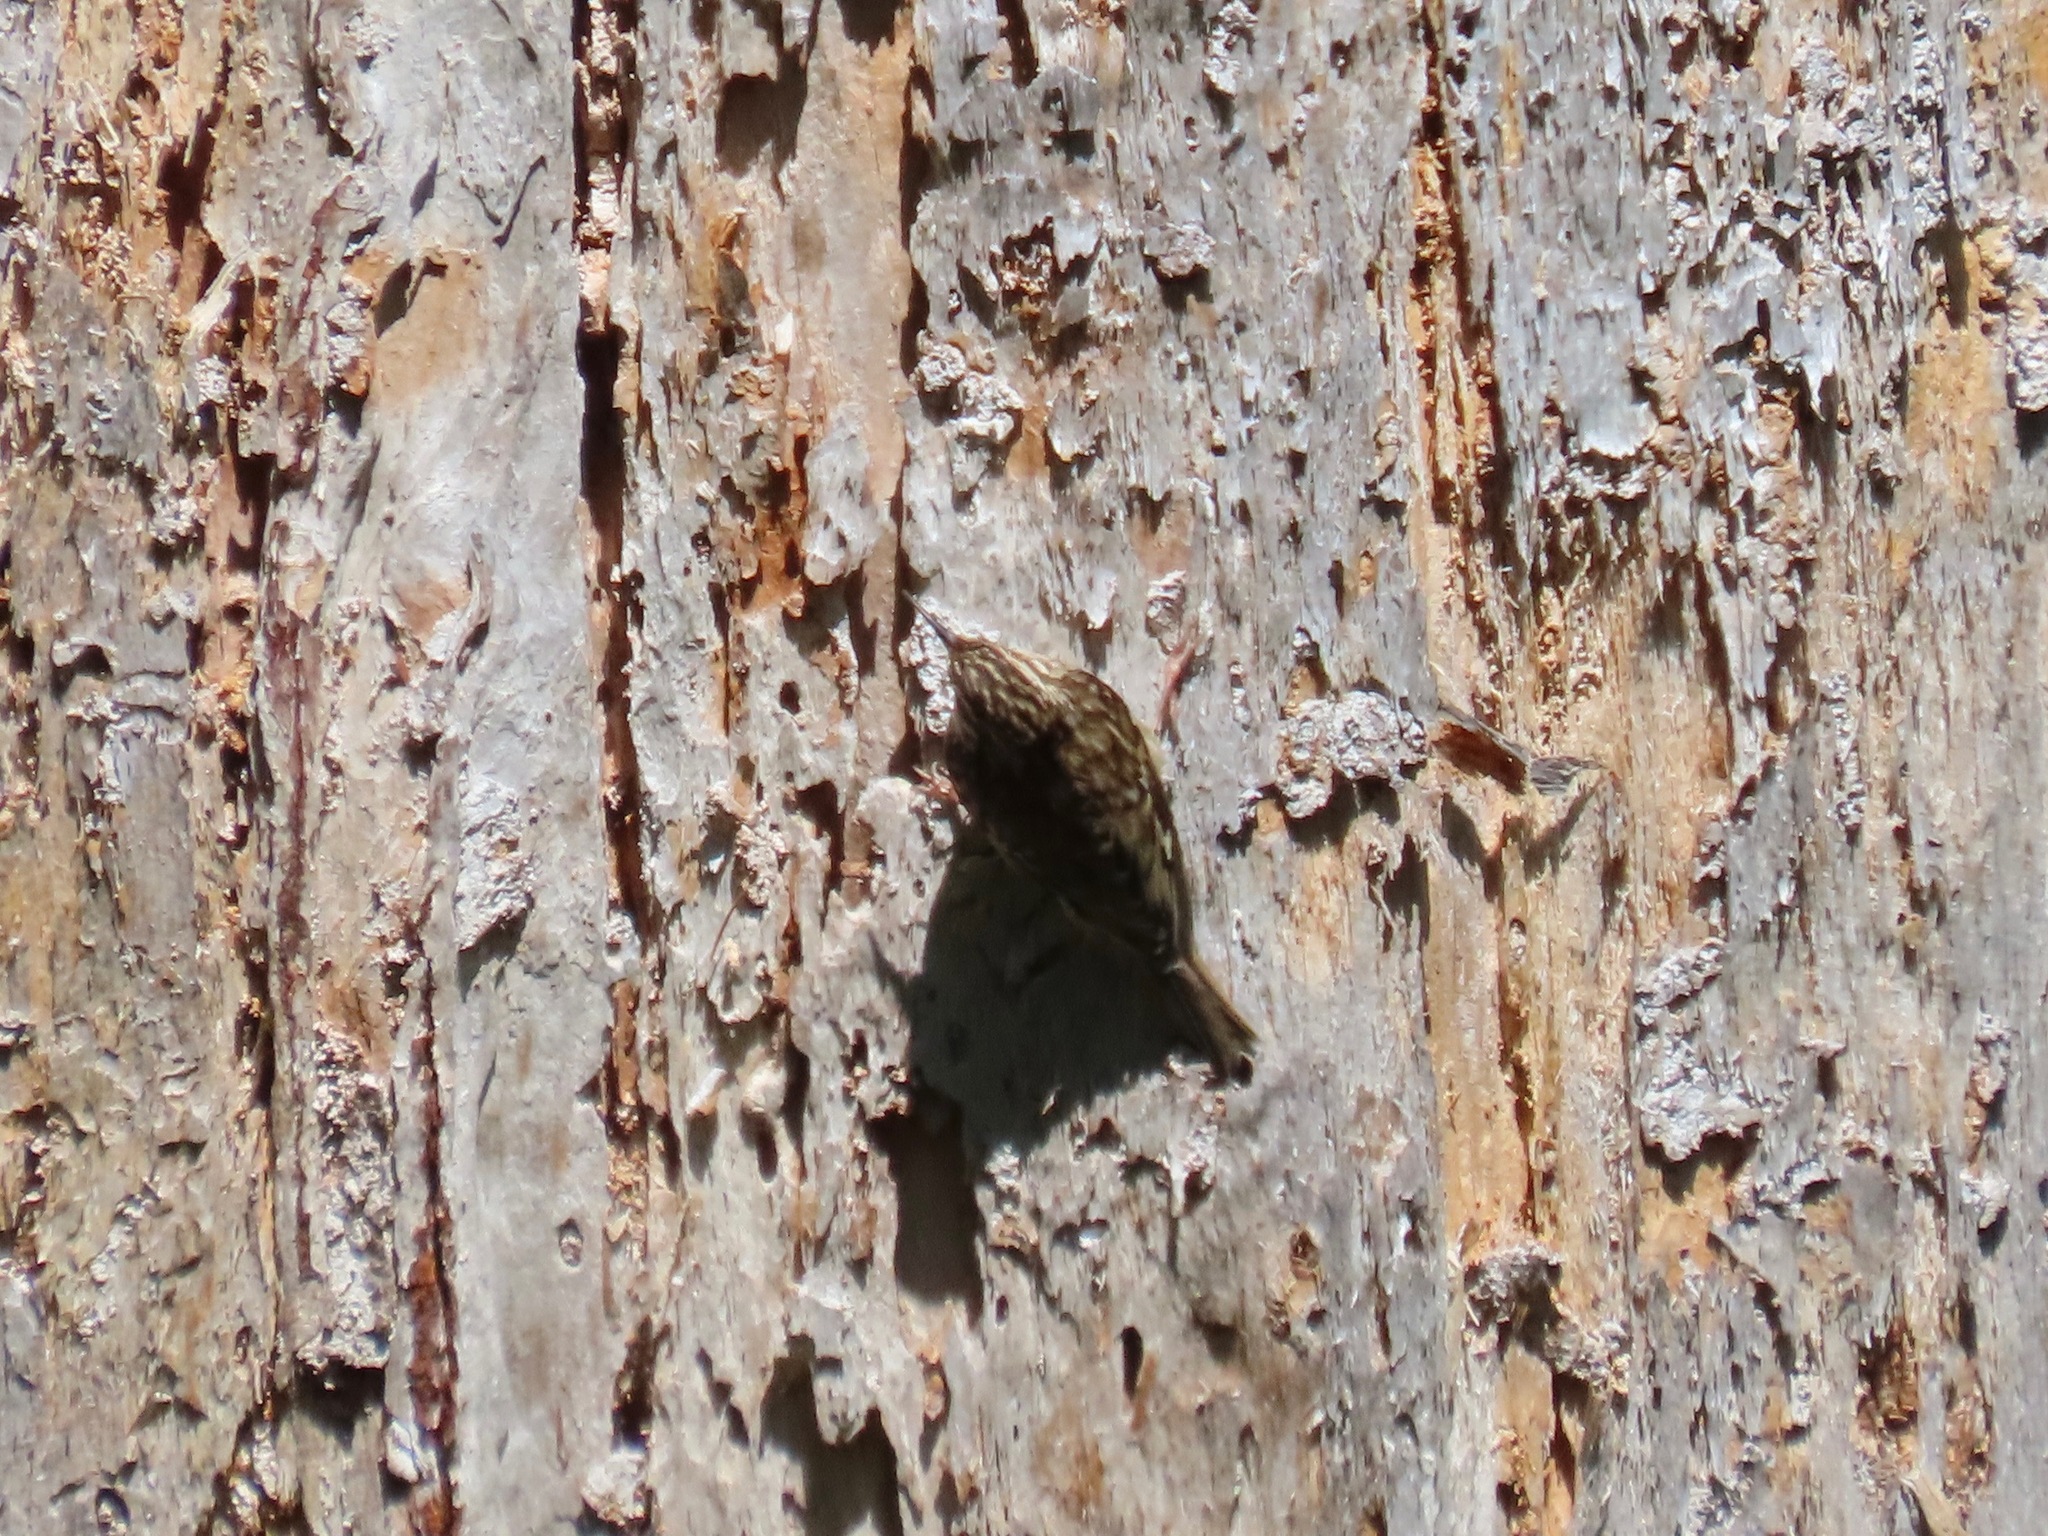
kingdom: Animalia
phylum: Chordata
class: Aves
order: Passeriformes
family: Certhiidae
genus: Certhia
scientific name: Certhia americana
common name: Brown creeper
